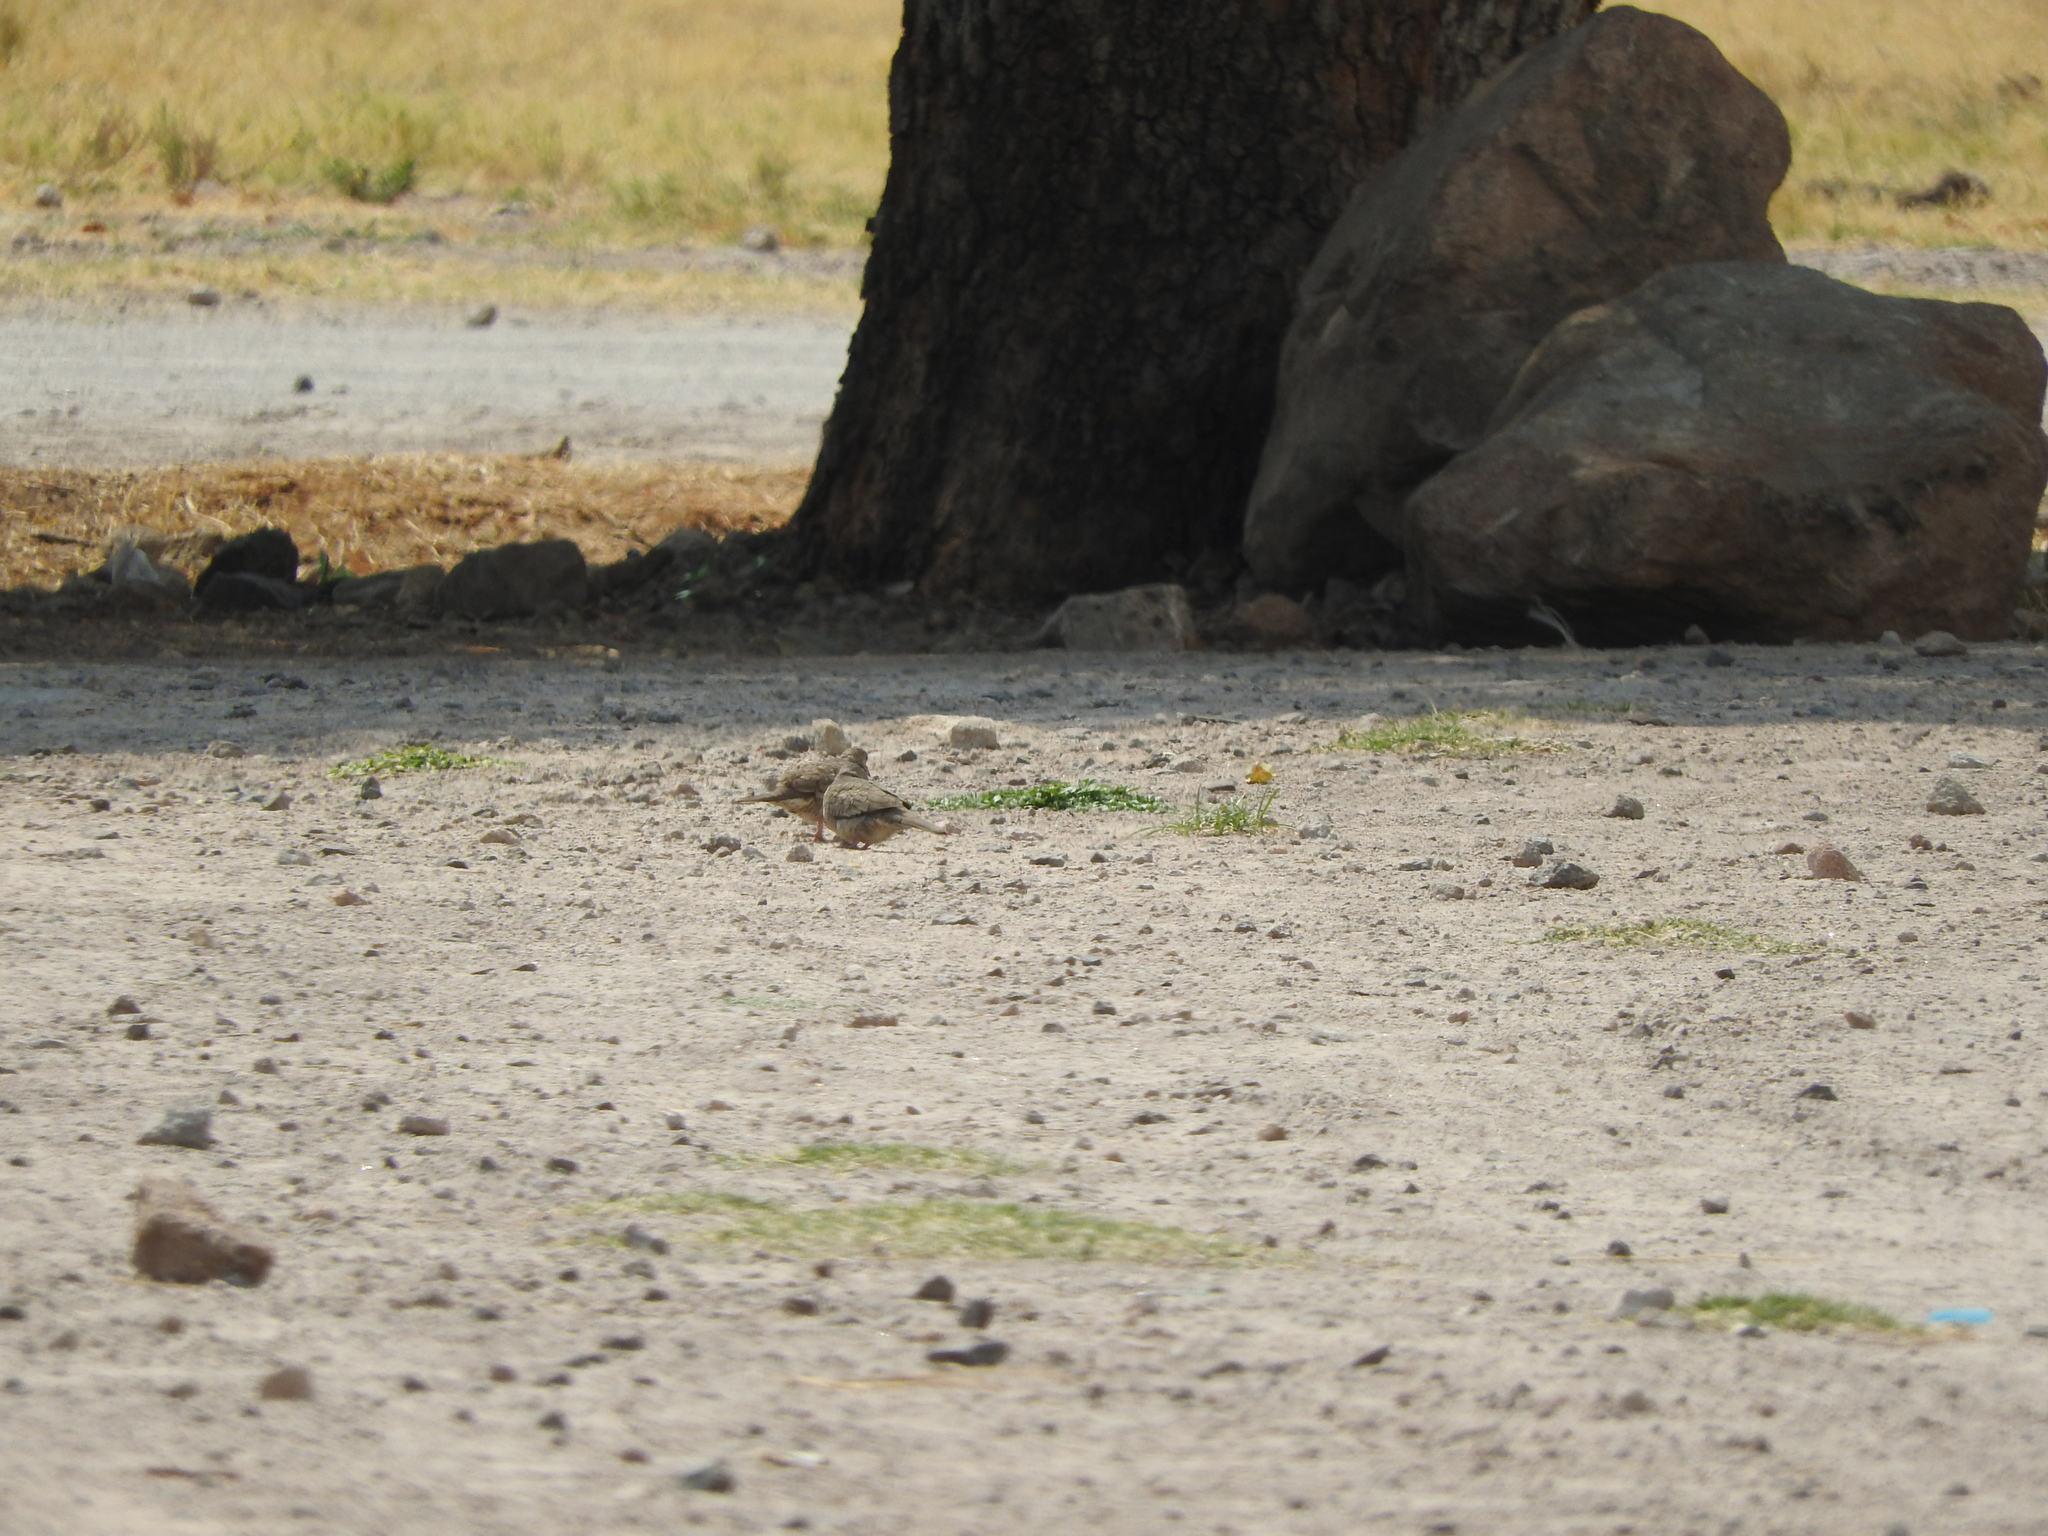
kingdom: Animalia
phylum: Chordata
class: Aves
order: Columbiformes
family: Columbidae
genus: Columbina
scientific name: Columbina inca
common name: Inca dove
